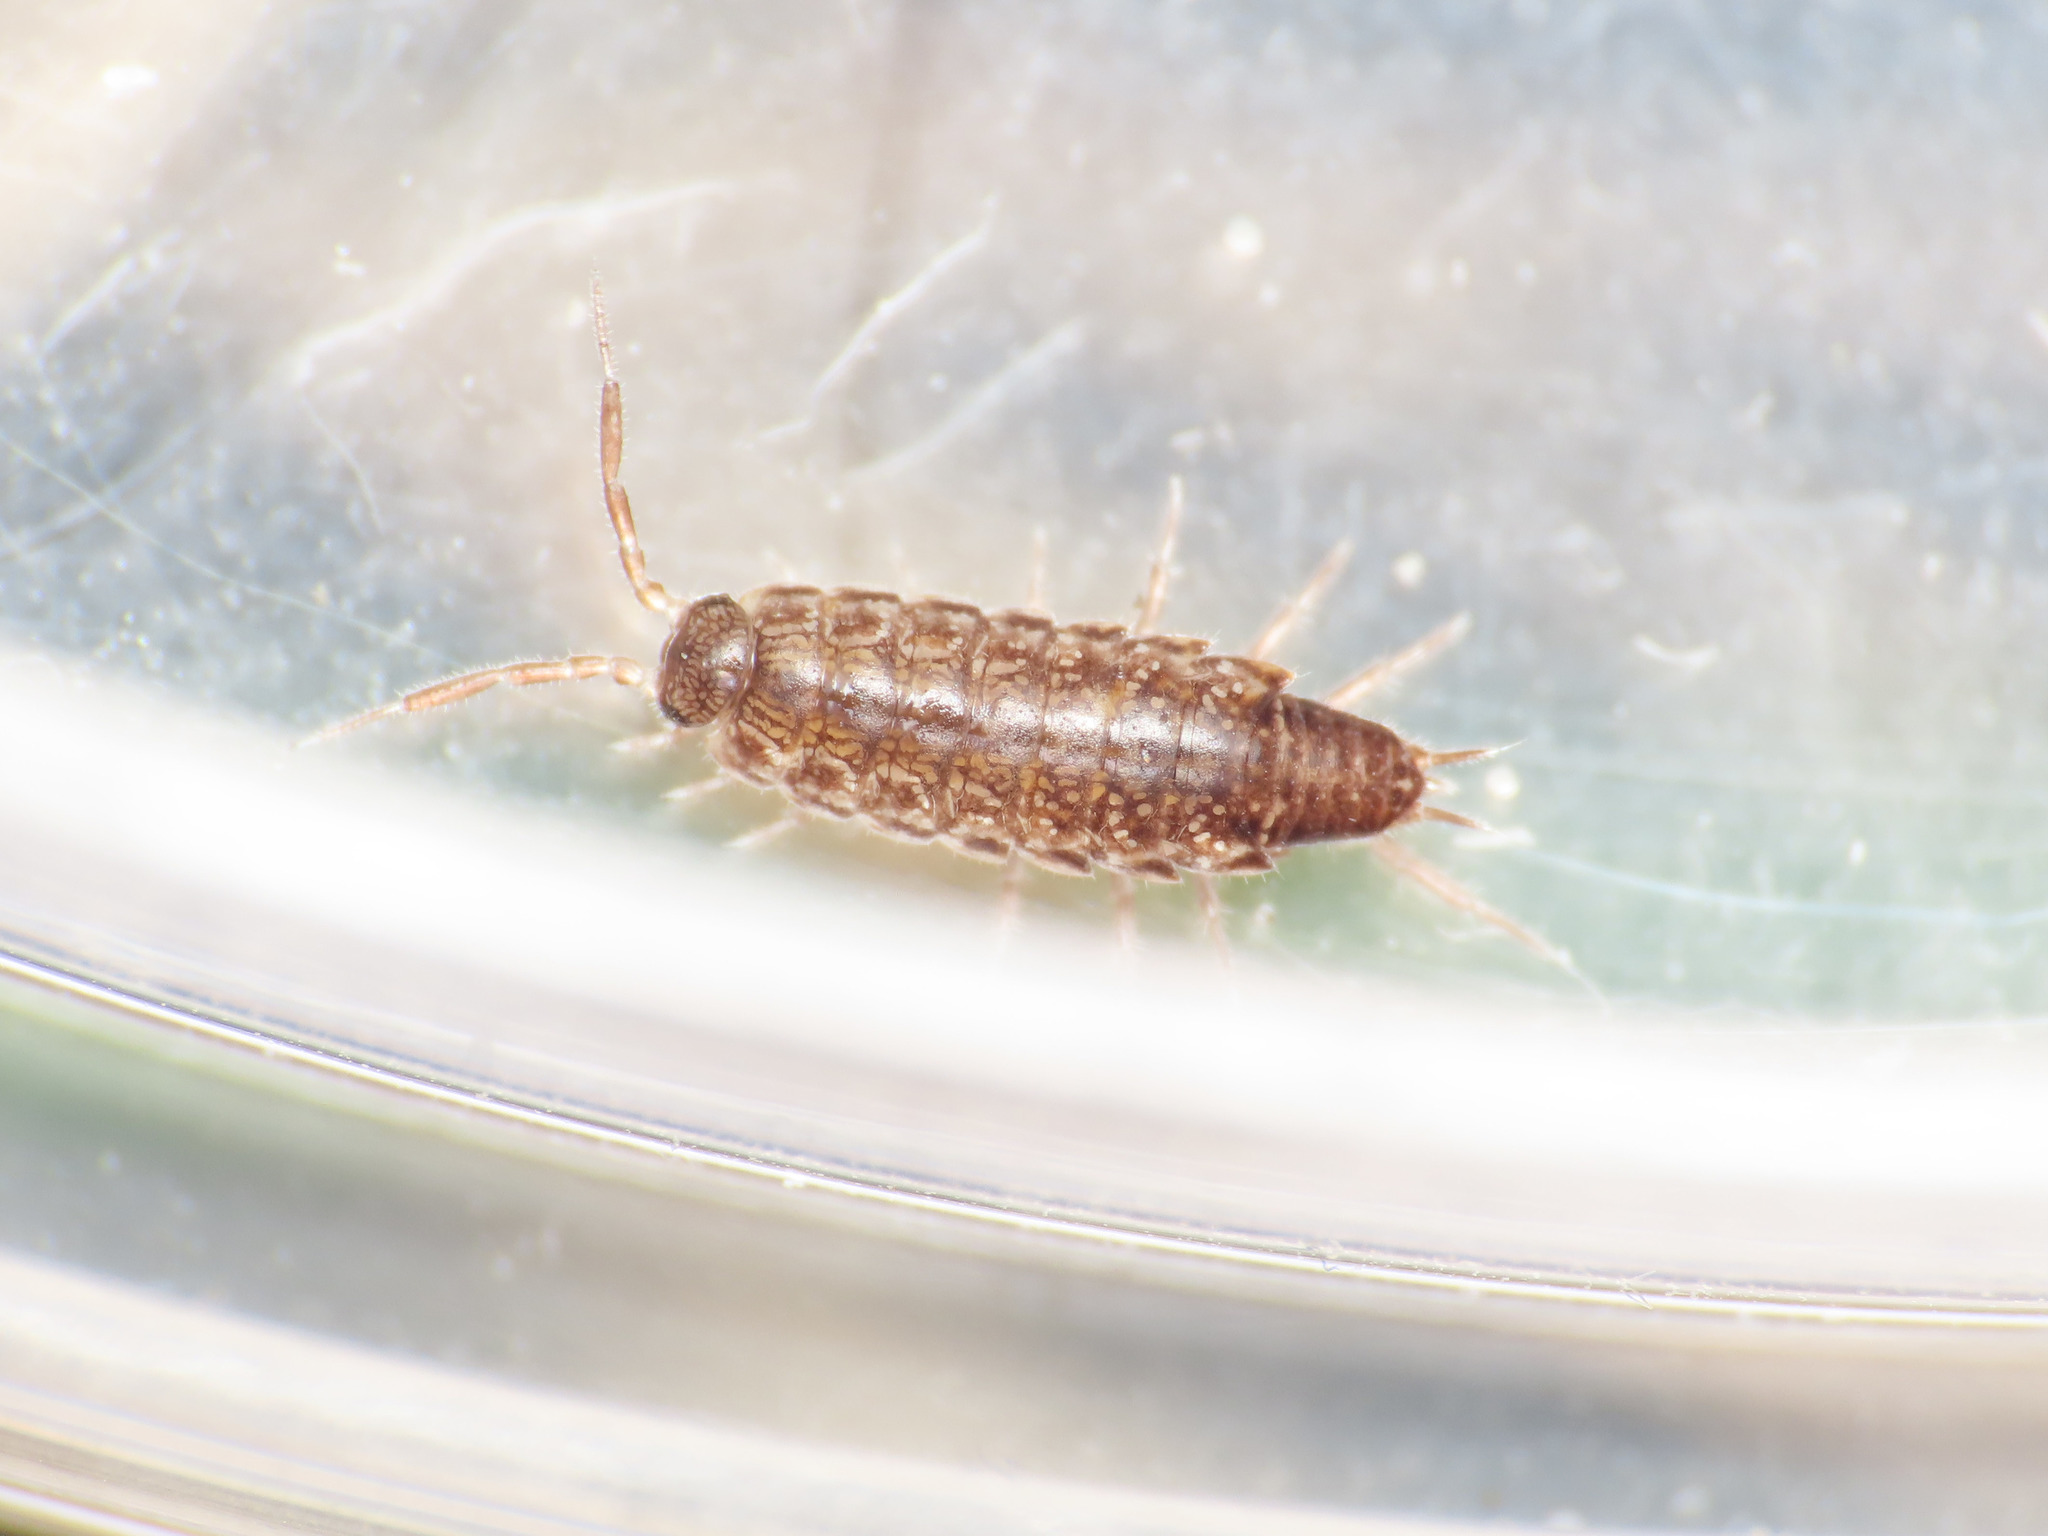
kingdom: Animalia
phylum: Arthropoda
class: Malacostraca
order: Isopoda
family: Philosciidae
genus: Chaetophiloscia
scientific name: Chaetophiloscia elongata
